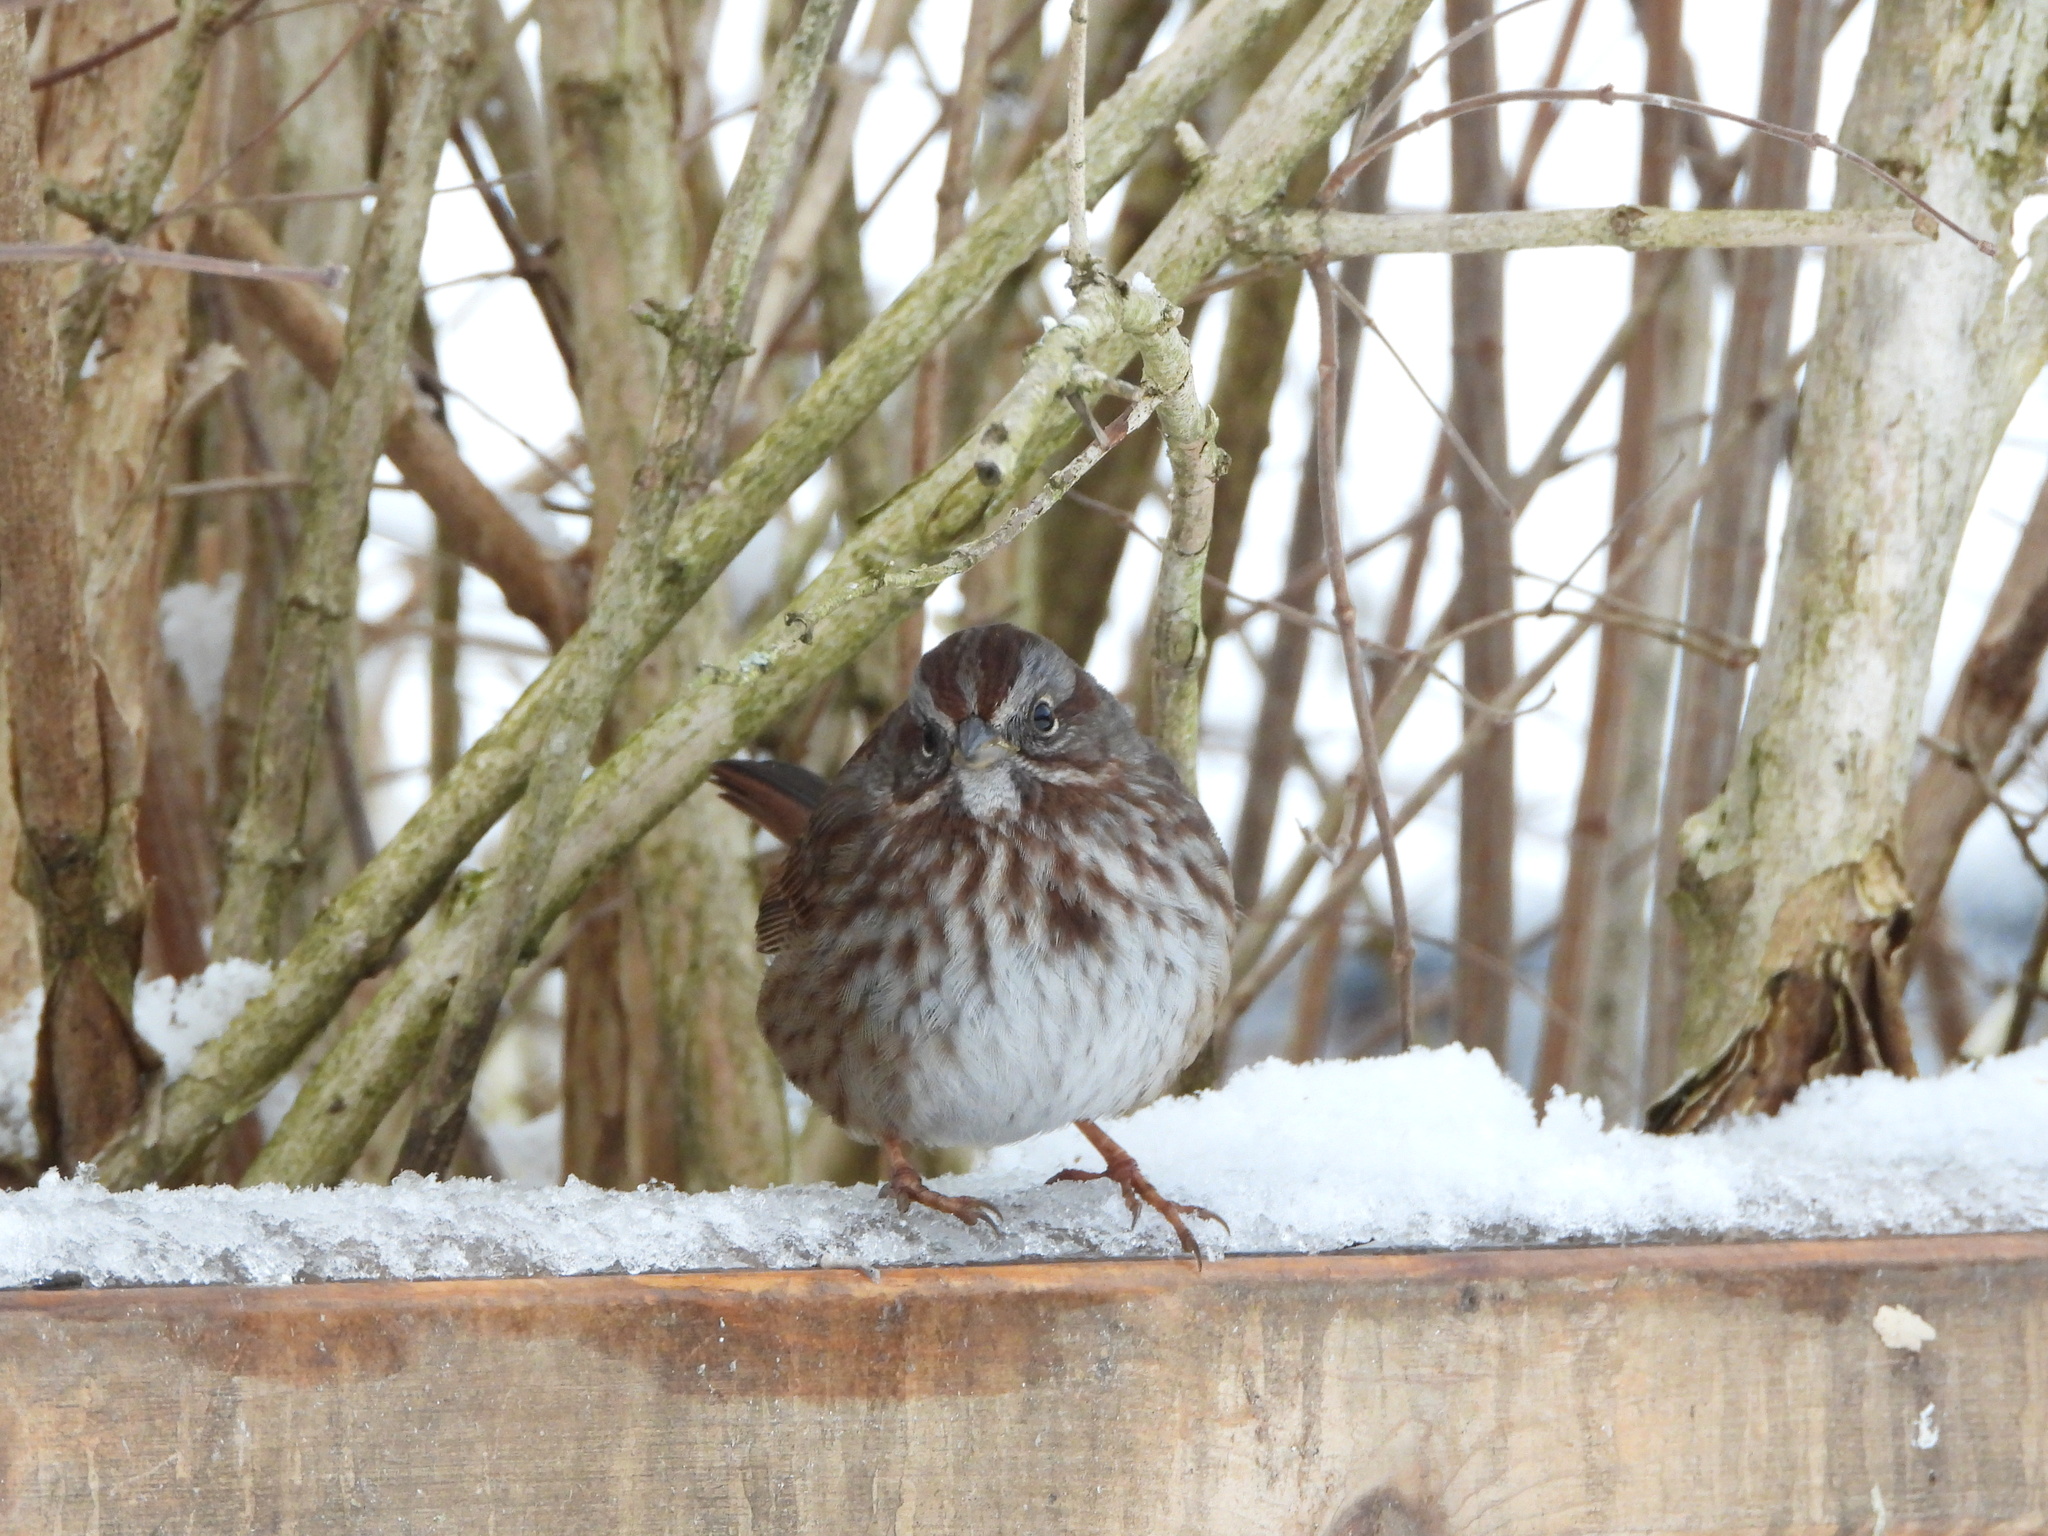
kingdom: Animalia
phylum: Chordata
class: Aves
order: Passeriformes
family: Passerellidae
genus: Melospiza
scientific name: Melospiza melodia
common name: Song sparrow
